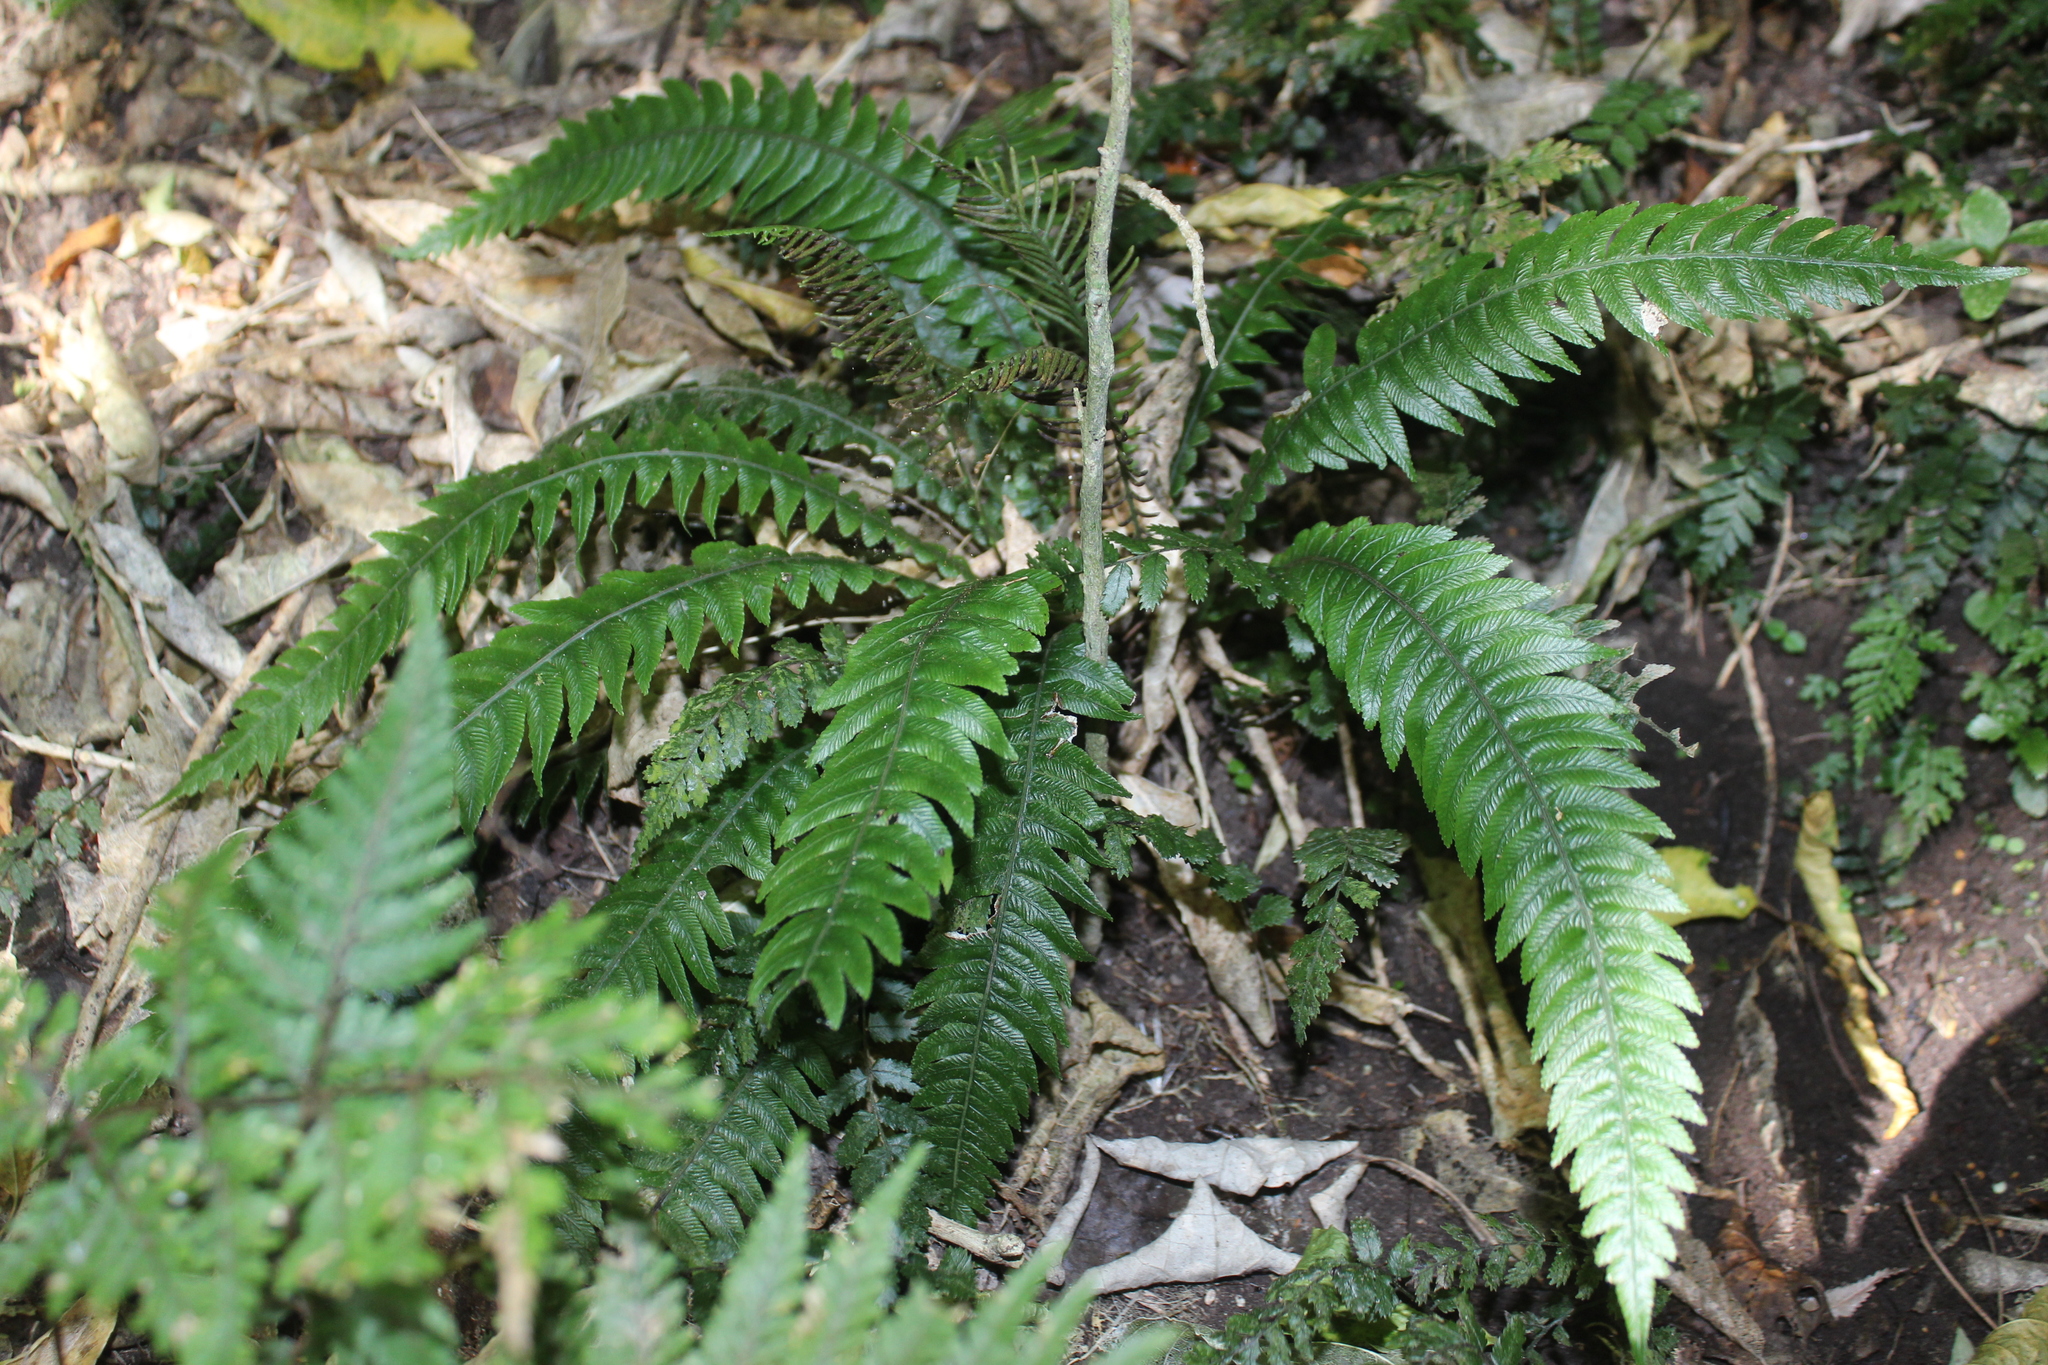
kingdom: Plantae
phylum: Tracheophyta
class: Polypodiopsida
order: Polypodiales
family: Blechnaceae
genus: Austroblechnum
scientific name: Austroblechnum lanceolatum
